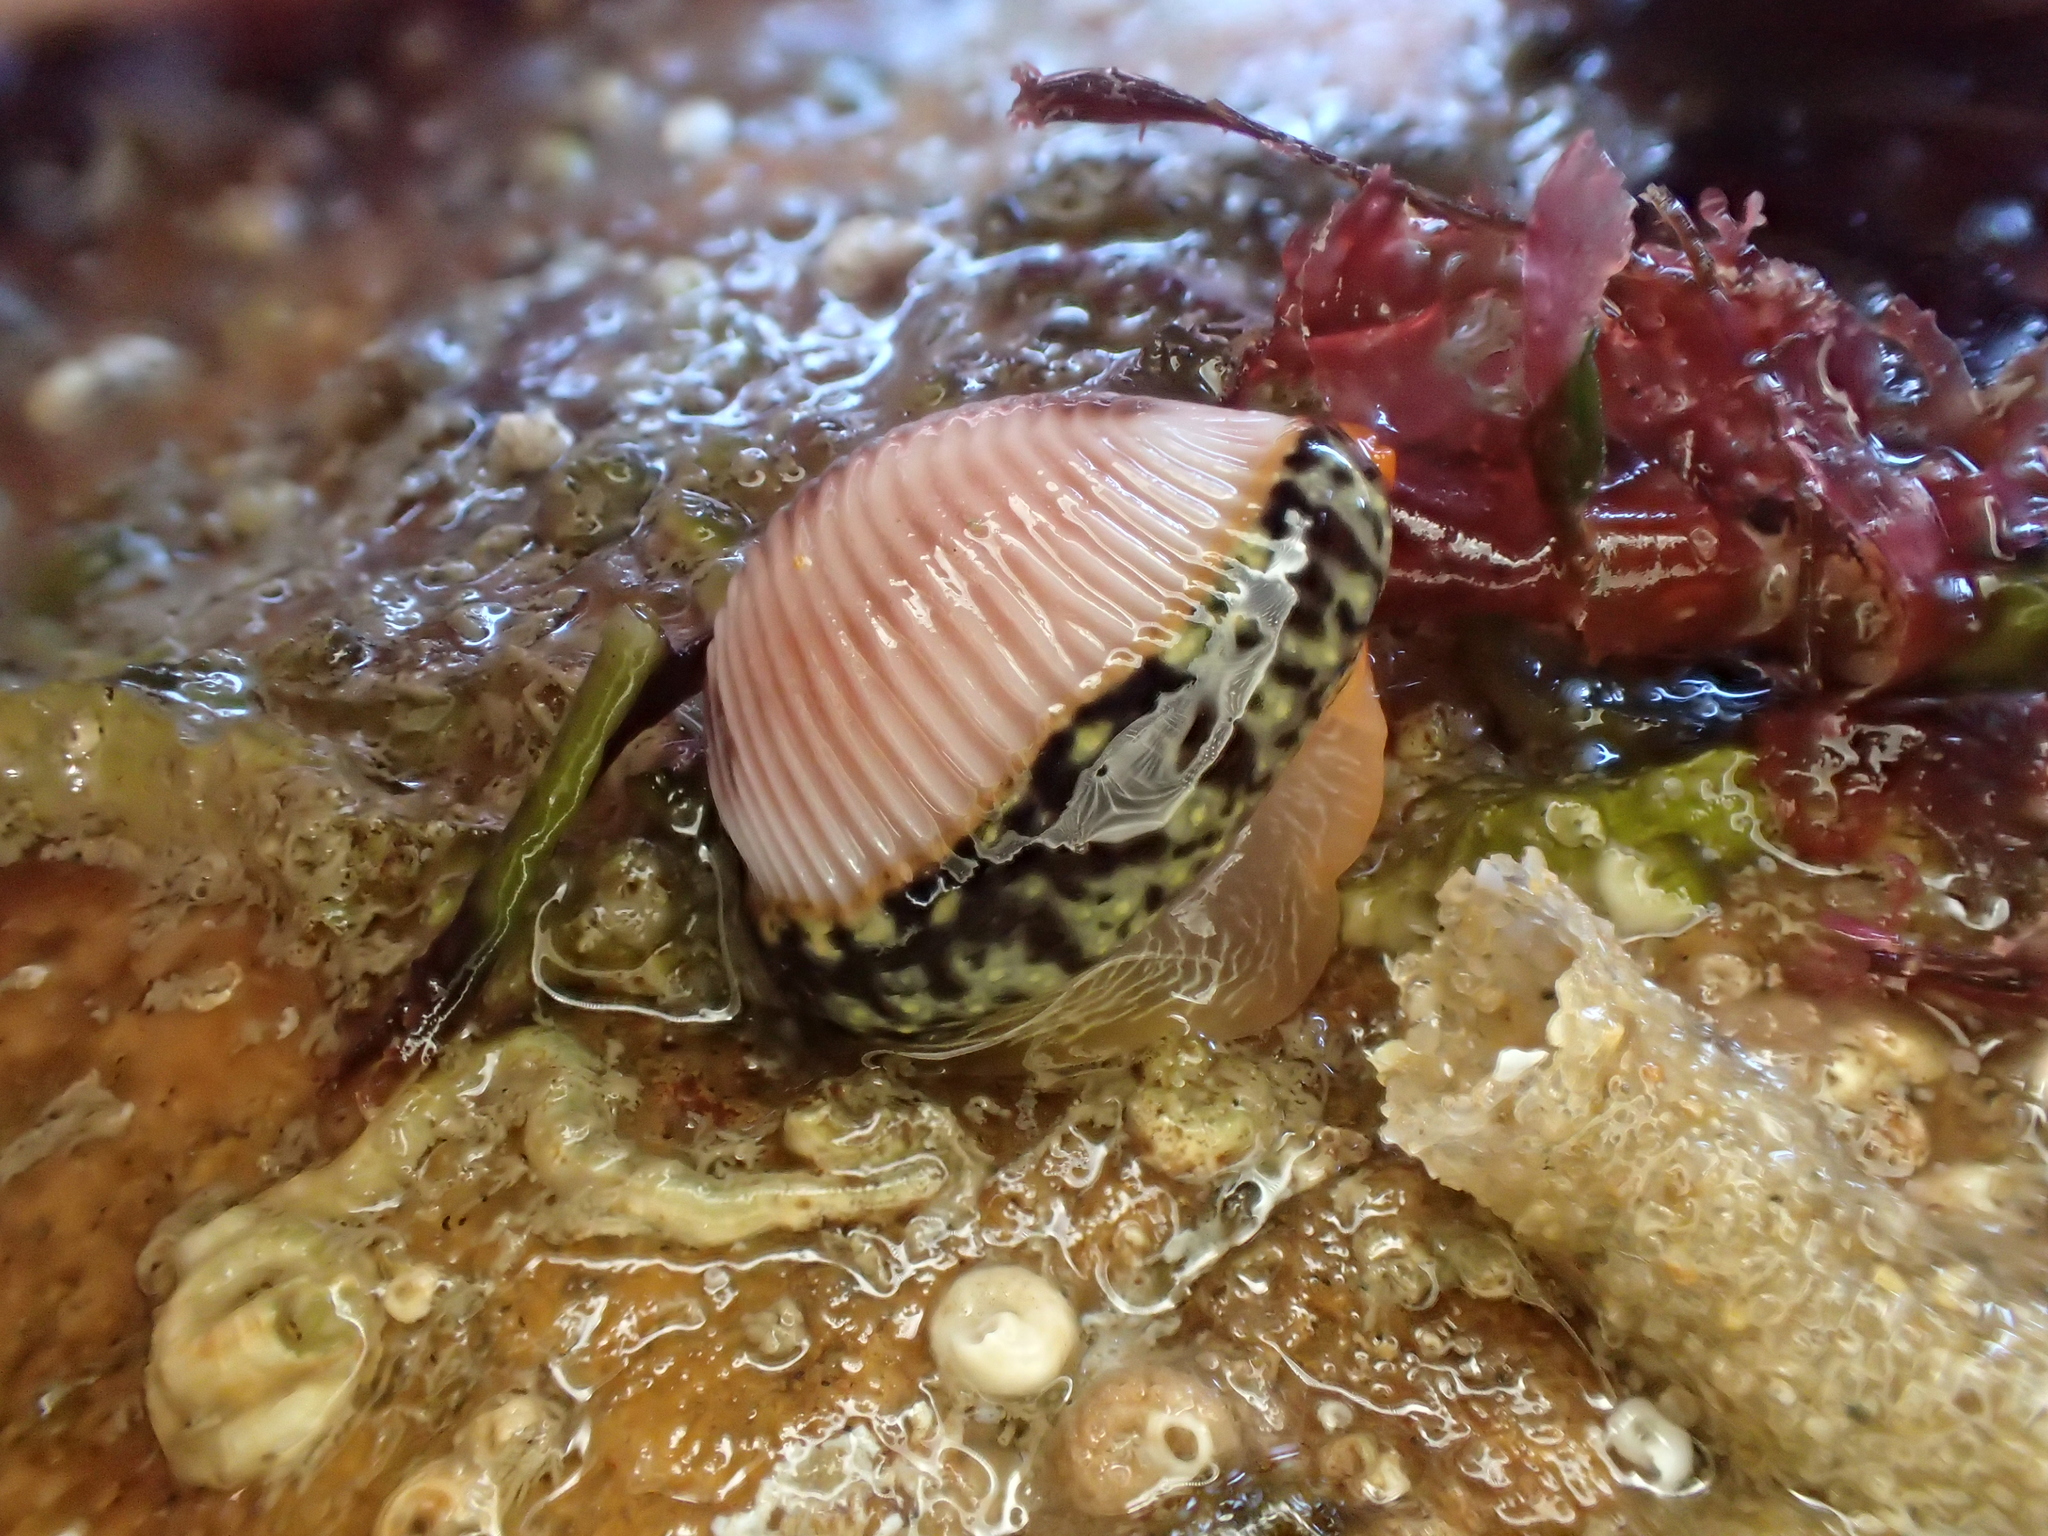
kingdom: Animalia
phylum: Mollusca
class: Gastropoda
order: Littorinimorpha
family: Triviidae
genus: Trivia
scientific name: Trivia monacha
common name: Spotted cowrie
